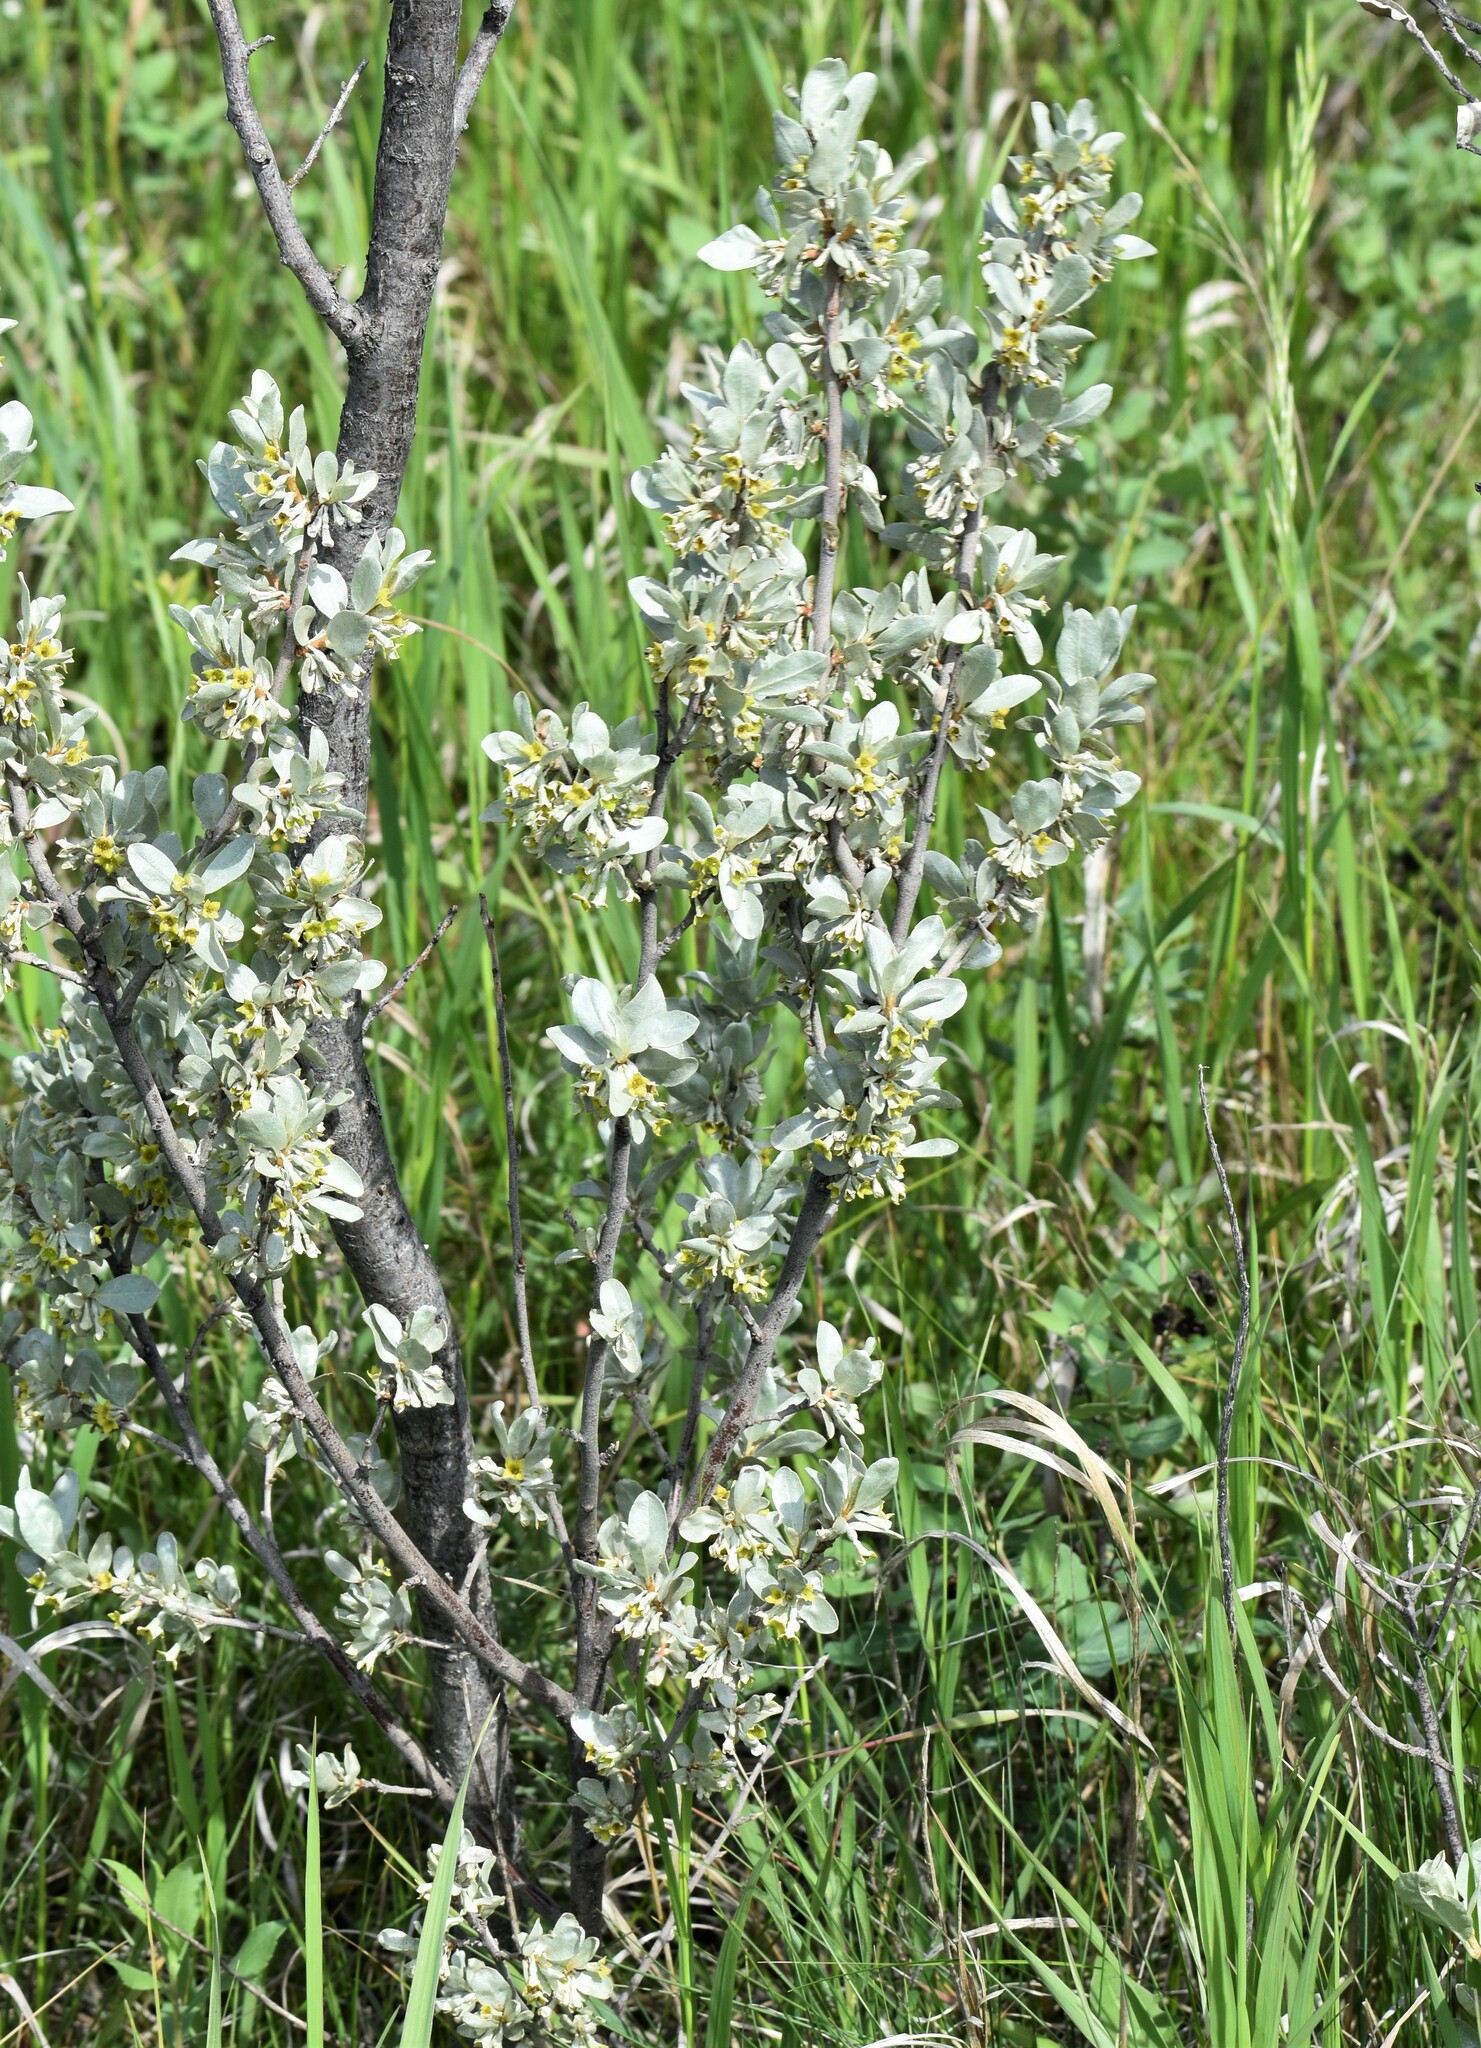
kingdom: Plantae
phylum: Tracheophyta
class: Magnoliopsida
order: Rosales
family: Elaeagnaceae
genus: Elaeagnus
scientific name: Elaeagnus commutata
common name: Silverberry
